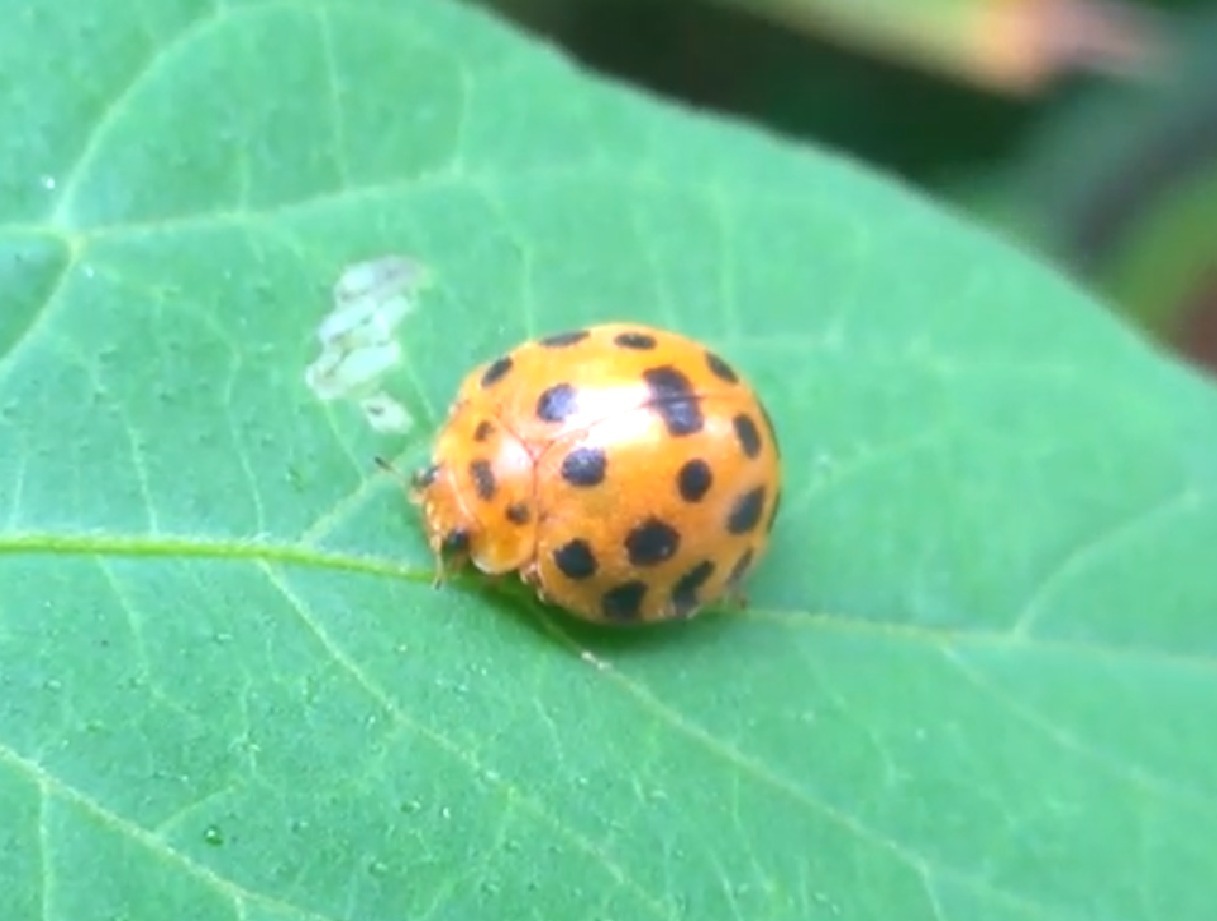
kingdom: Animalia
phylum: Arthropoda
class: Insecta
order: Coleoptera
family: Coccinellidae
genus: Henosepilachna
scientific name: Henosepilachna vigintioctopunctata
